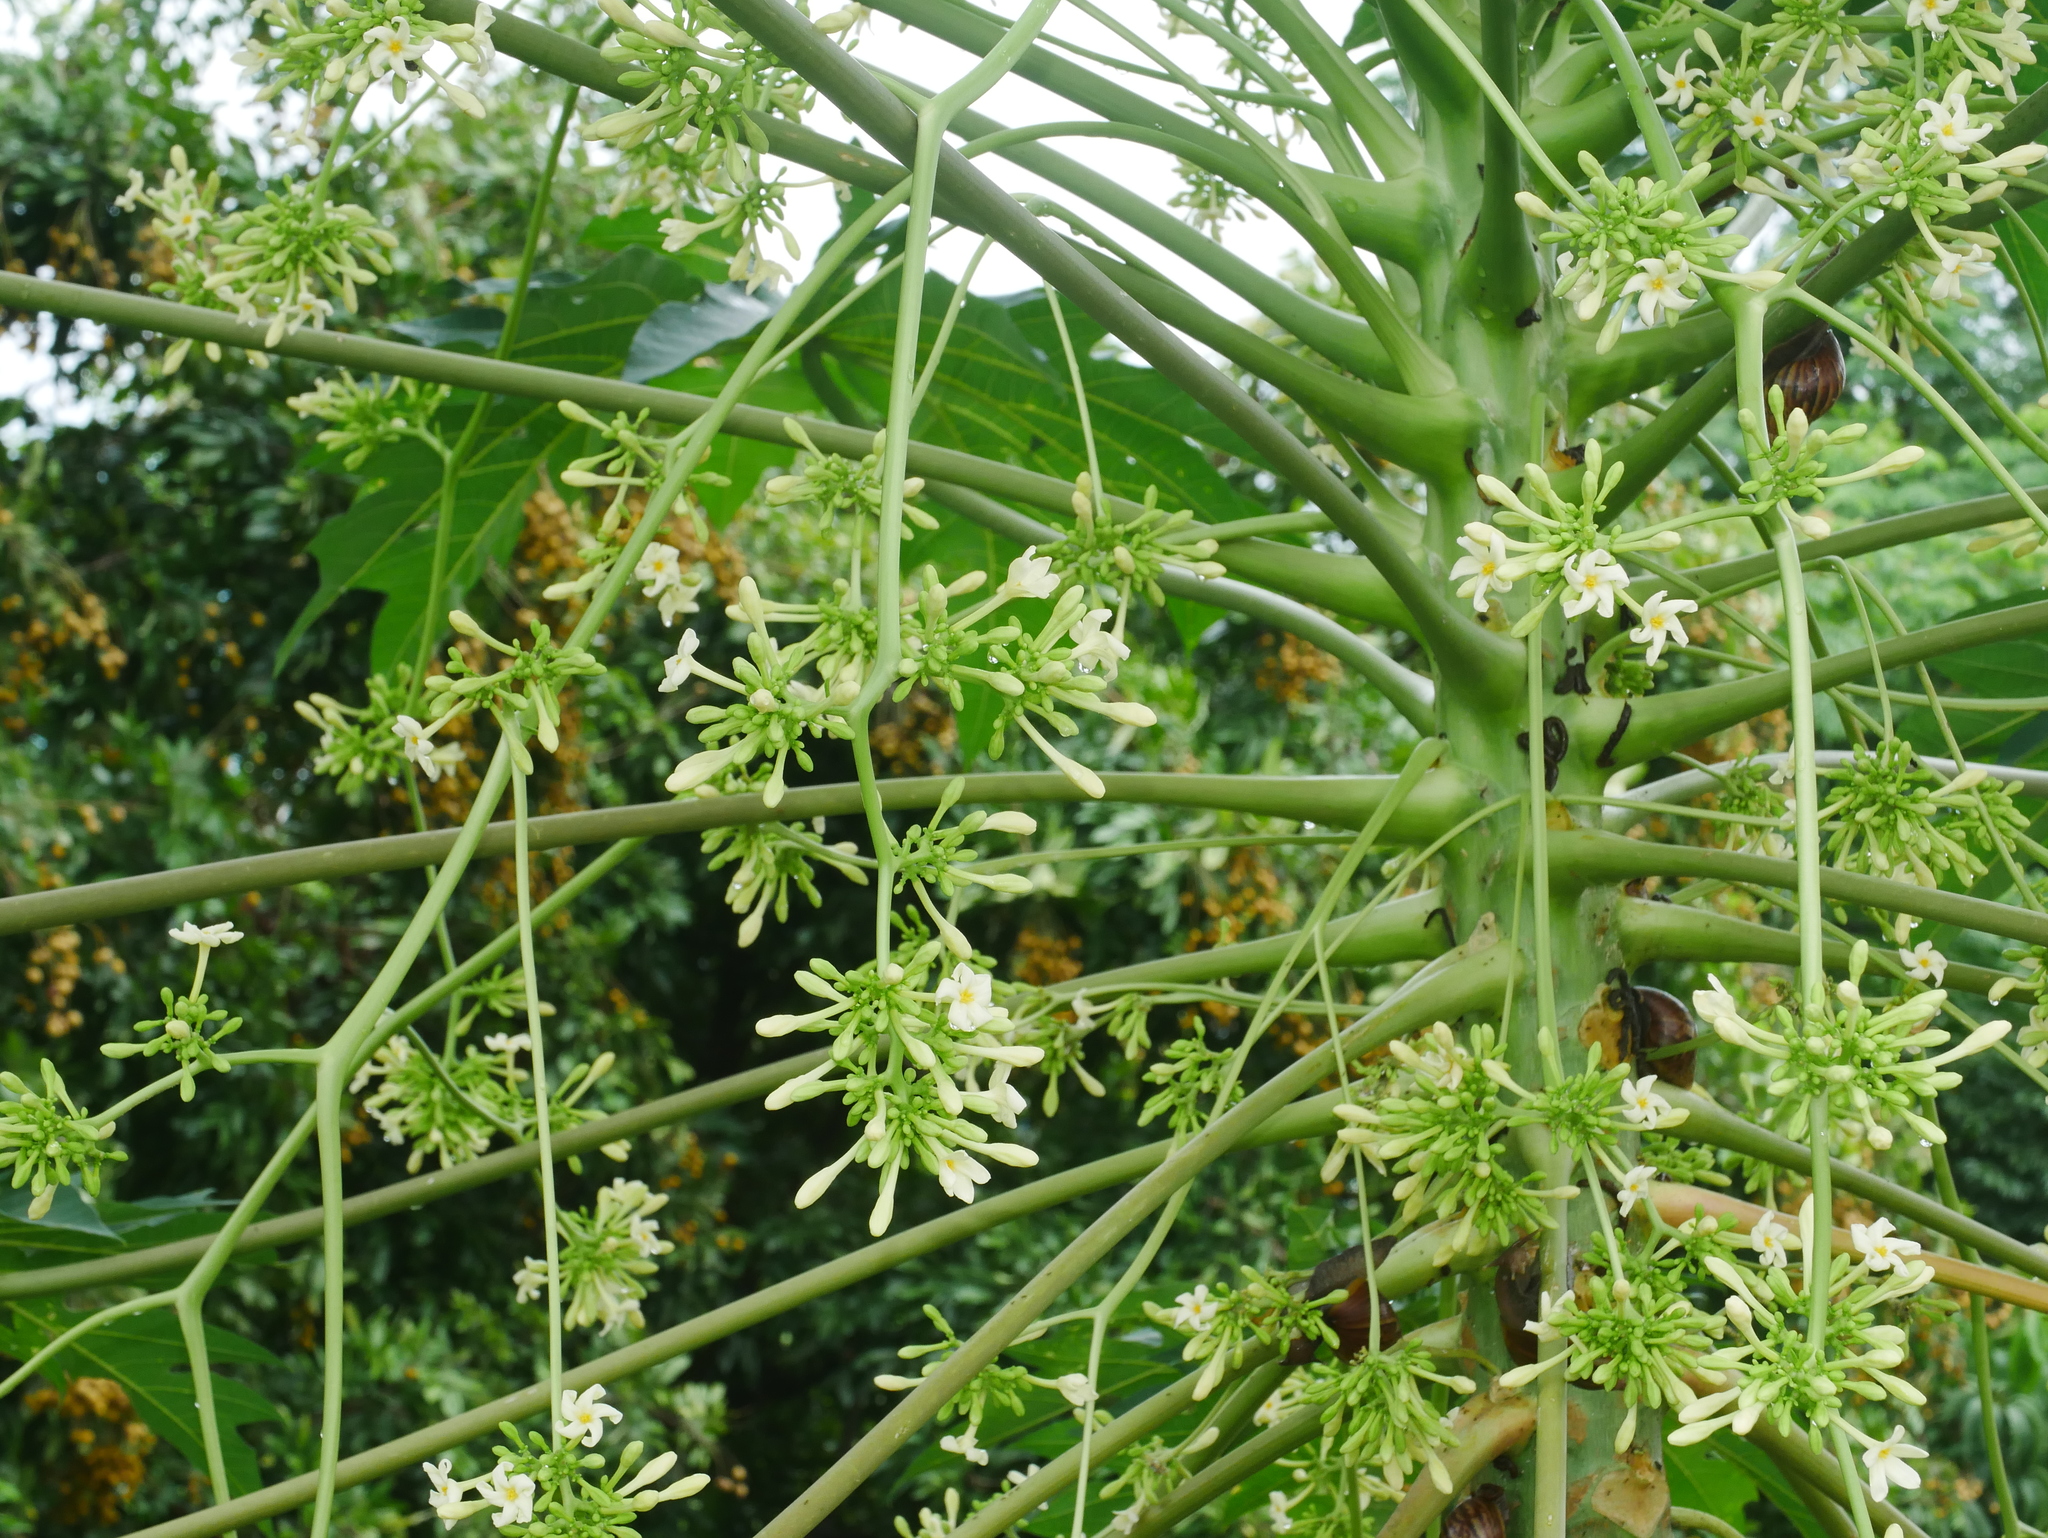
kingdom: Plantae
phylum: Tracheophyta
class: Magnoliopsida
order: Brassicales
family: Caricaceae
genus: Carica
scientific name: Carica papaya
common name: Papaya
